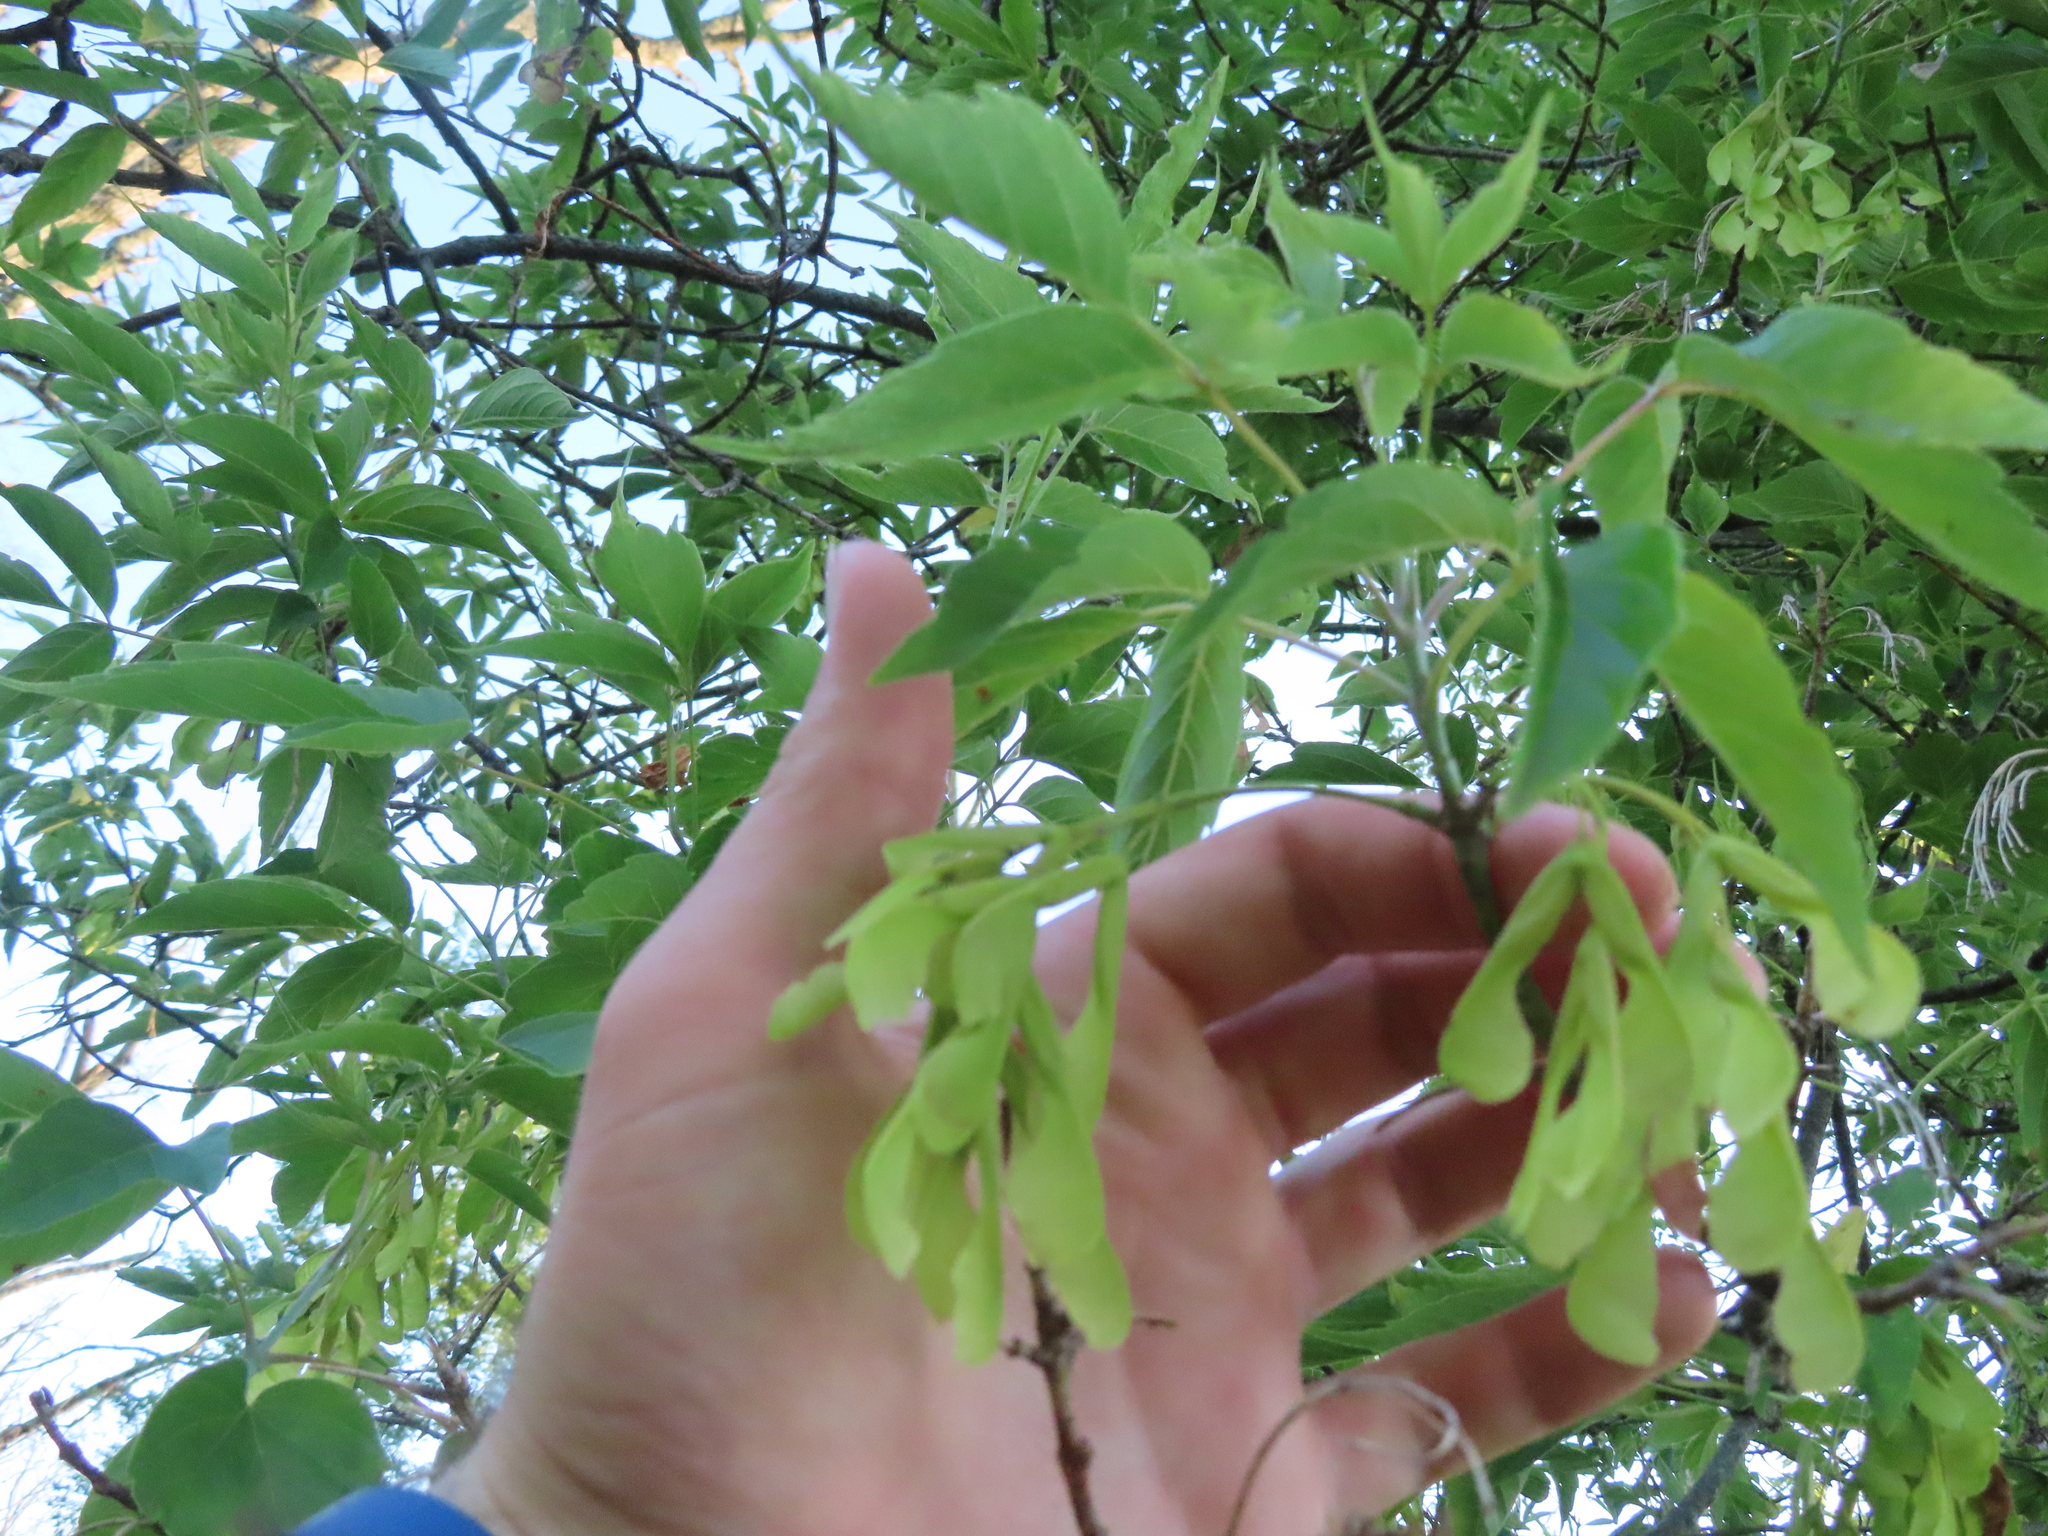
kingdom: Plantae
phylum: Tracheophyta
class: Magnoliopsida
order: Sapindales
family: Sapindaceae
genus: Acer
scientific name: Acer negundo
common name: Ashleaf maple
